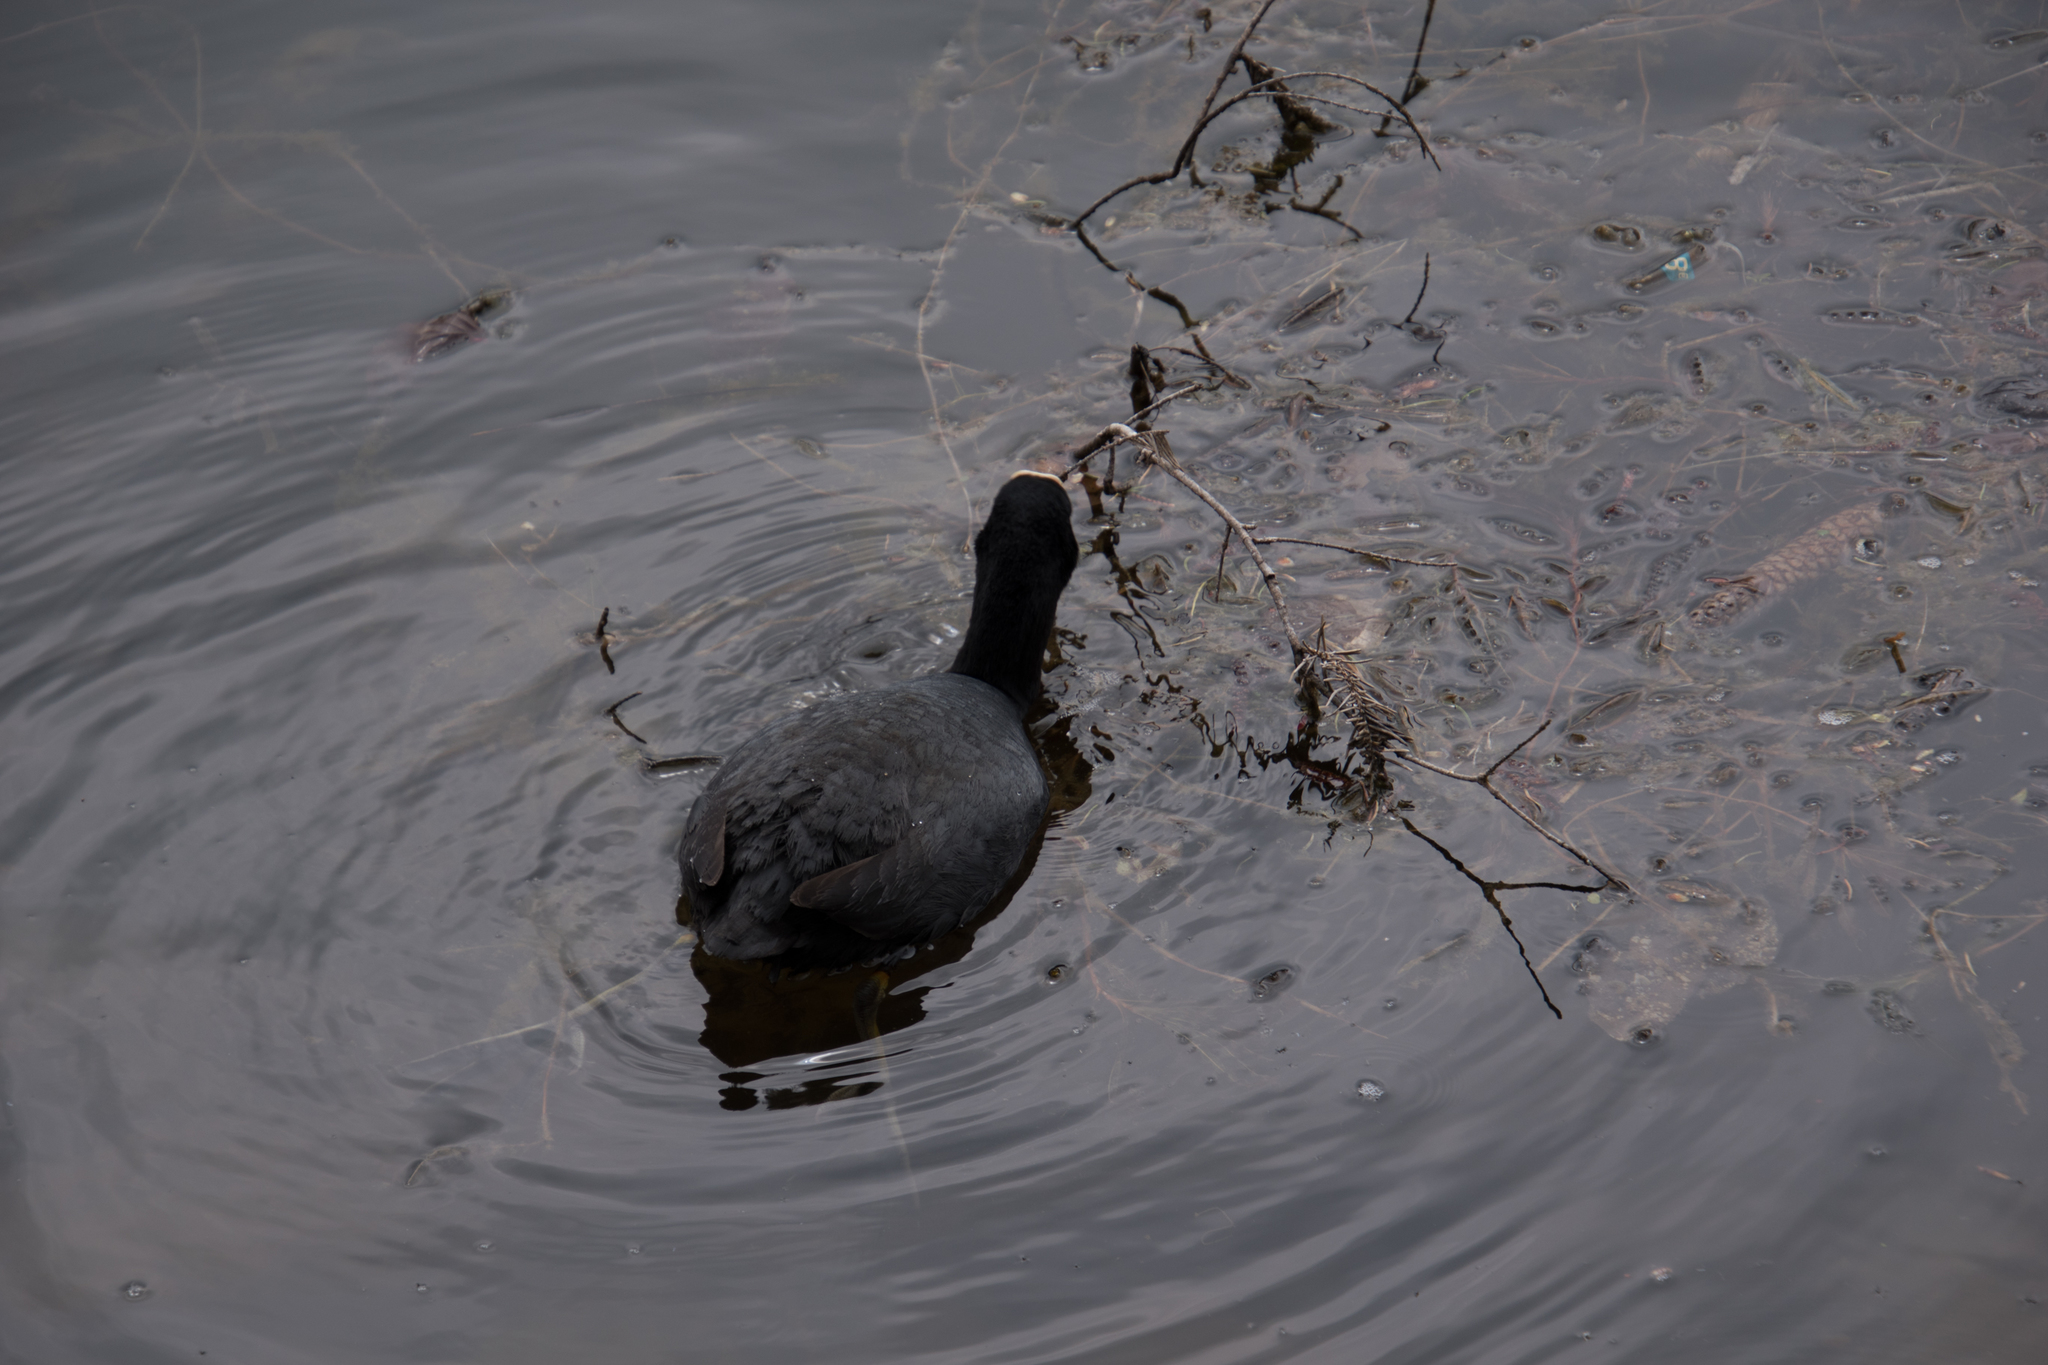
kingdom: Animalia
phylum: Chordata
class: Aves
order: Gruiformes
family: Rallidae
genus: Fulica
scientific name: Fulica atra
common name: Eurasian coot
